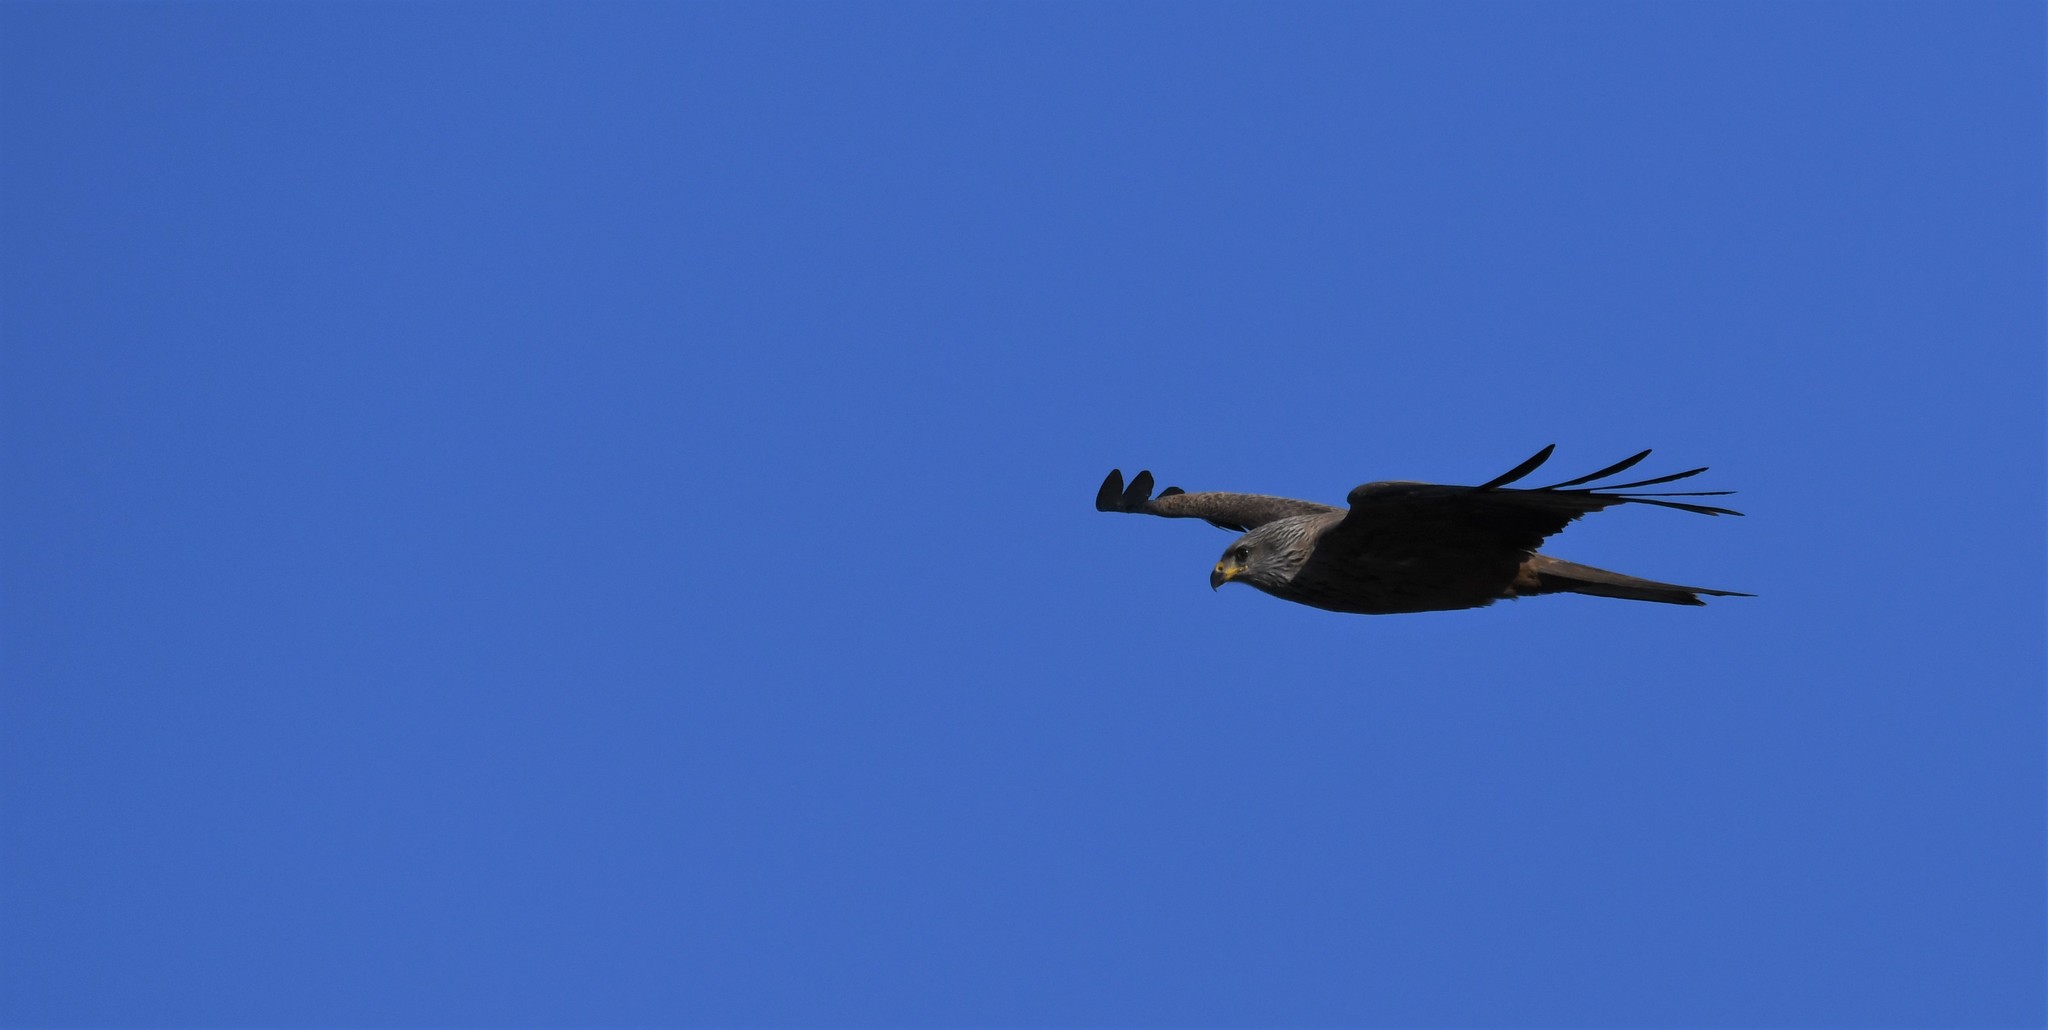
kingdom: Animalia
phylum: Chordata
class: Aves
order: Accipitriformes
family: Accipitridae
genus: Milvus
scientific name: Milvus migrans
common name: Black kite
